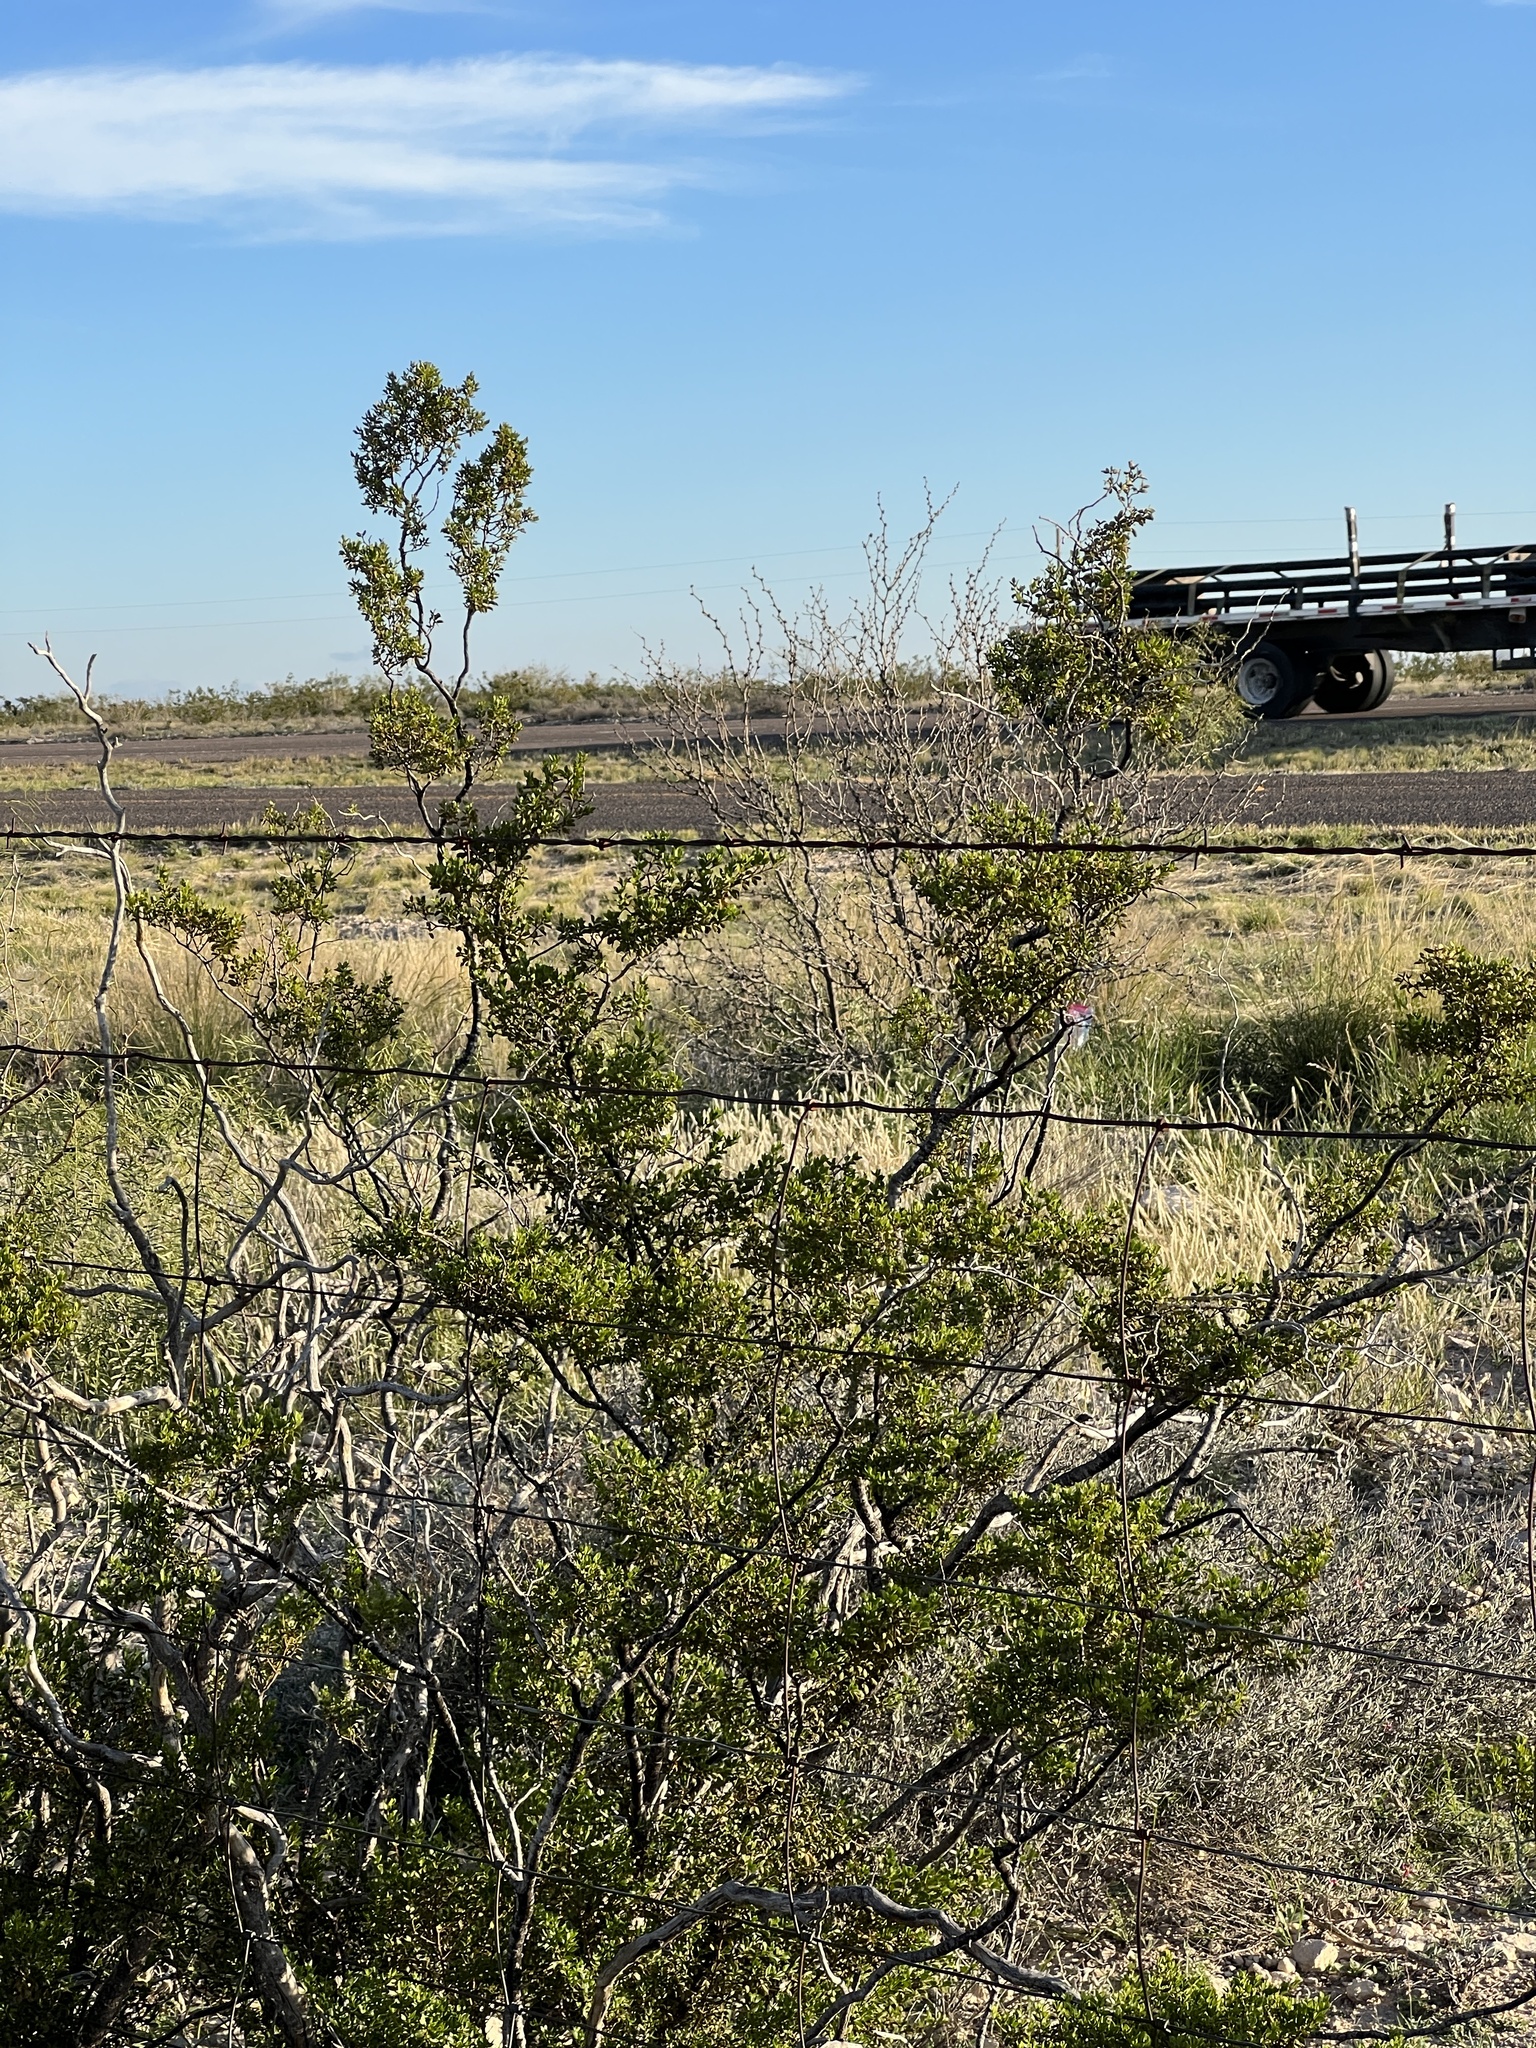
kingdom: Plantae
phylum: Tracheophyta
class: Magnoliopsida
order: Zygophyllales
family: Zygophyllaceae
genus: Larrea
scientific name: Larrea tridentata
